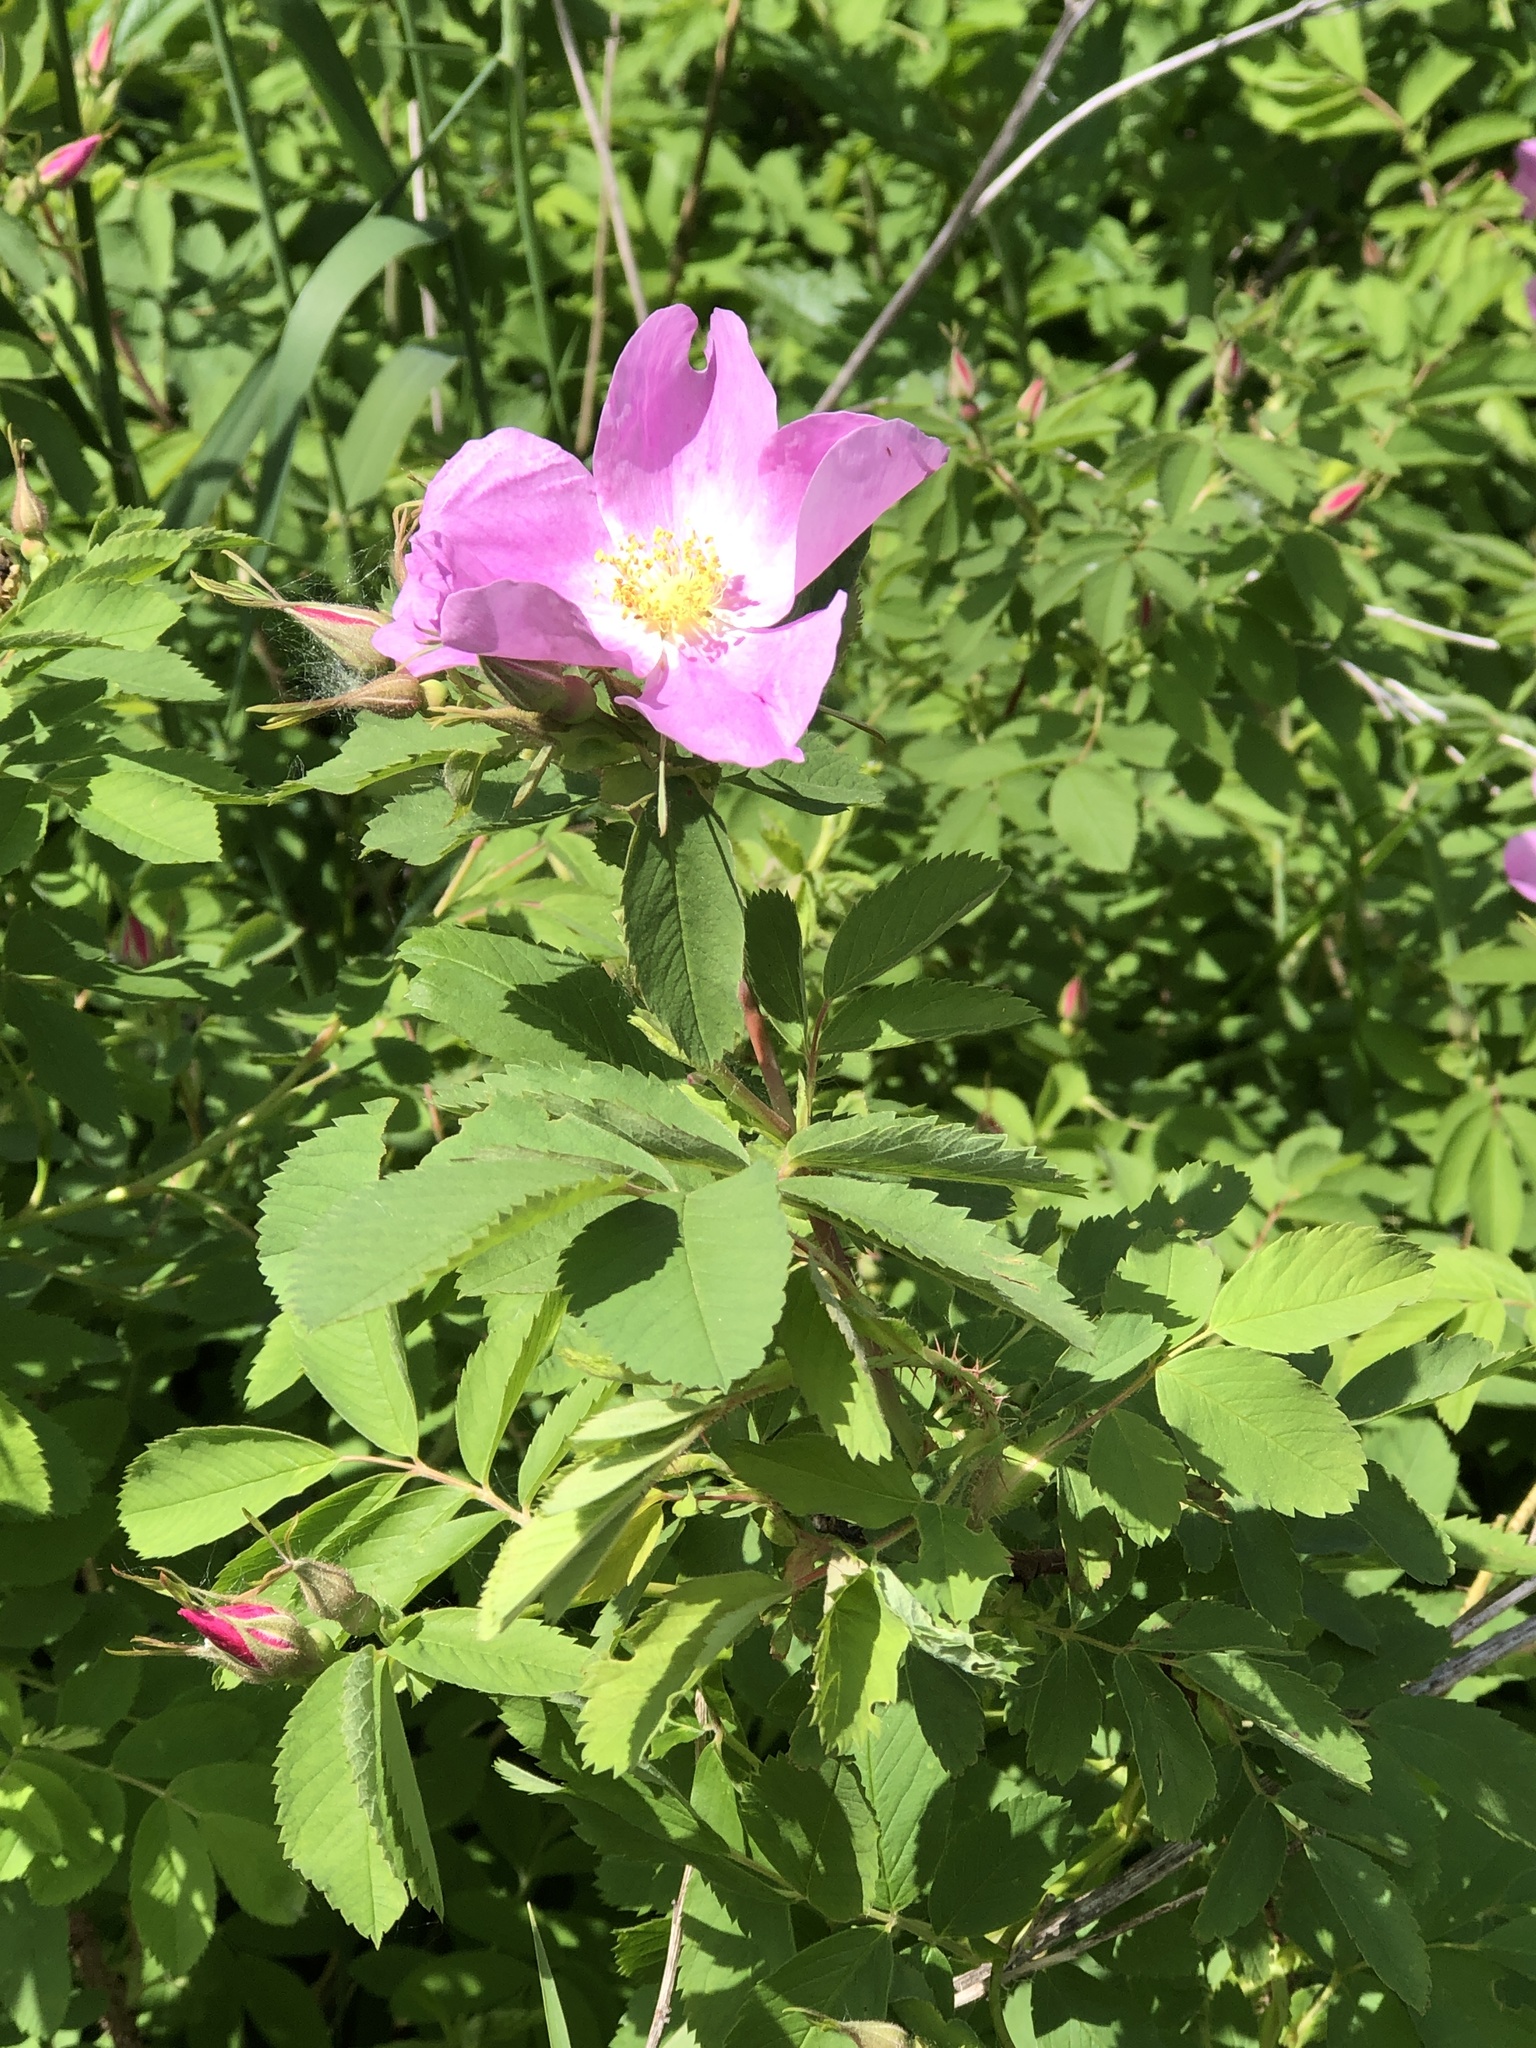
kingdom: Plantae
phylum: Tracheophyta
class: Magnoliopsida
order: Rosales
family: Rosaceae
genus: Rosa
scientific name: Rosa blanda
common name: Smooth rose
